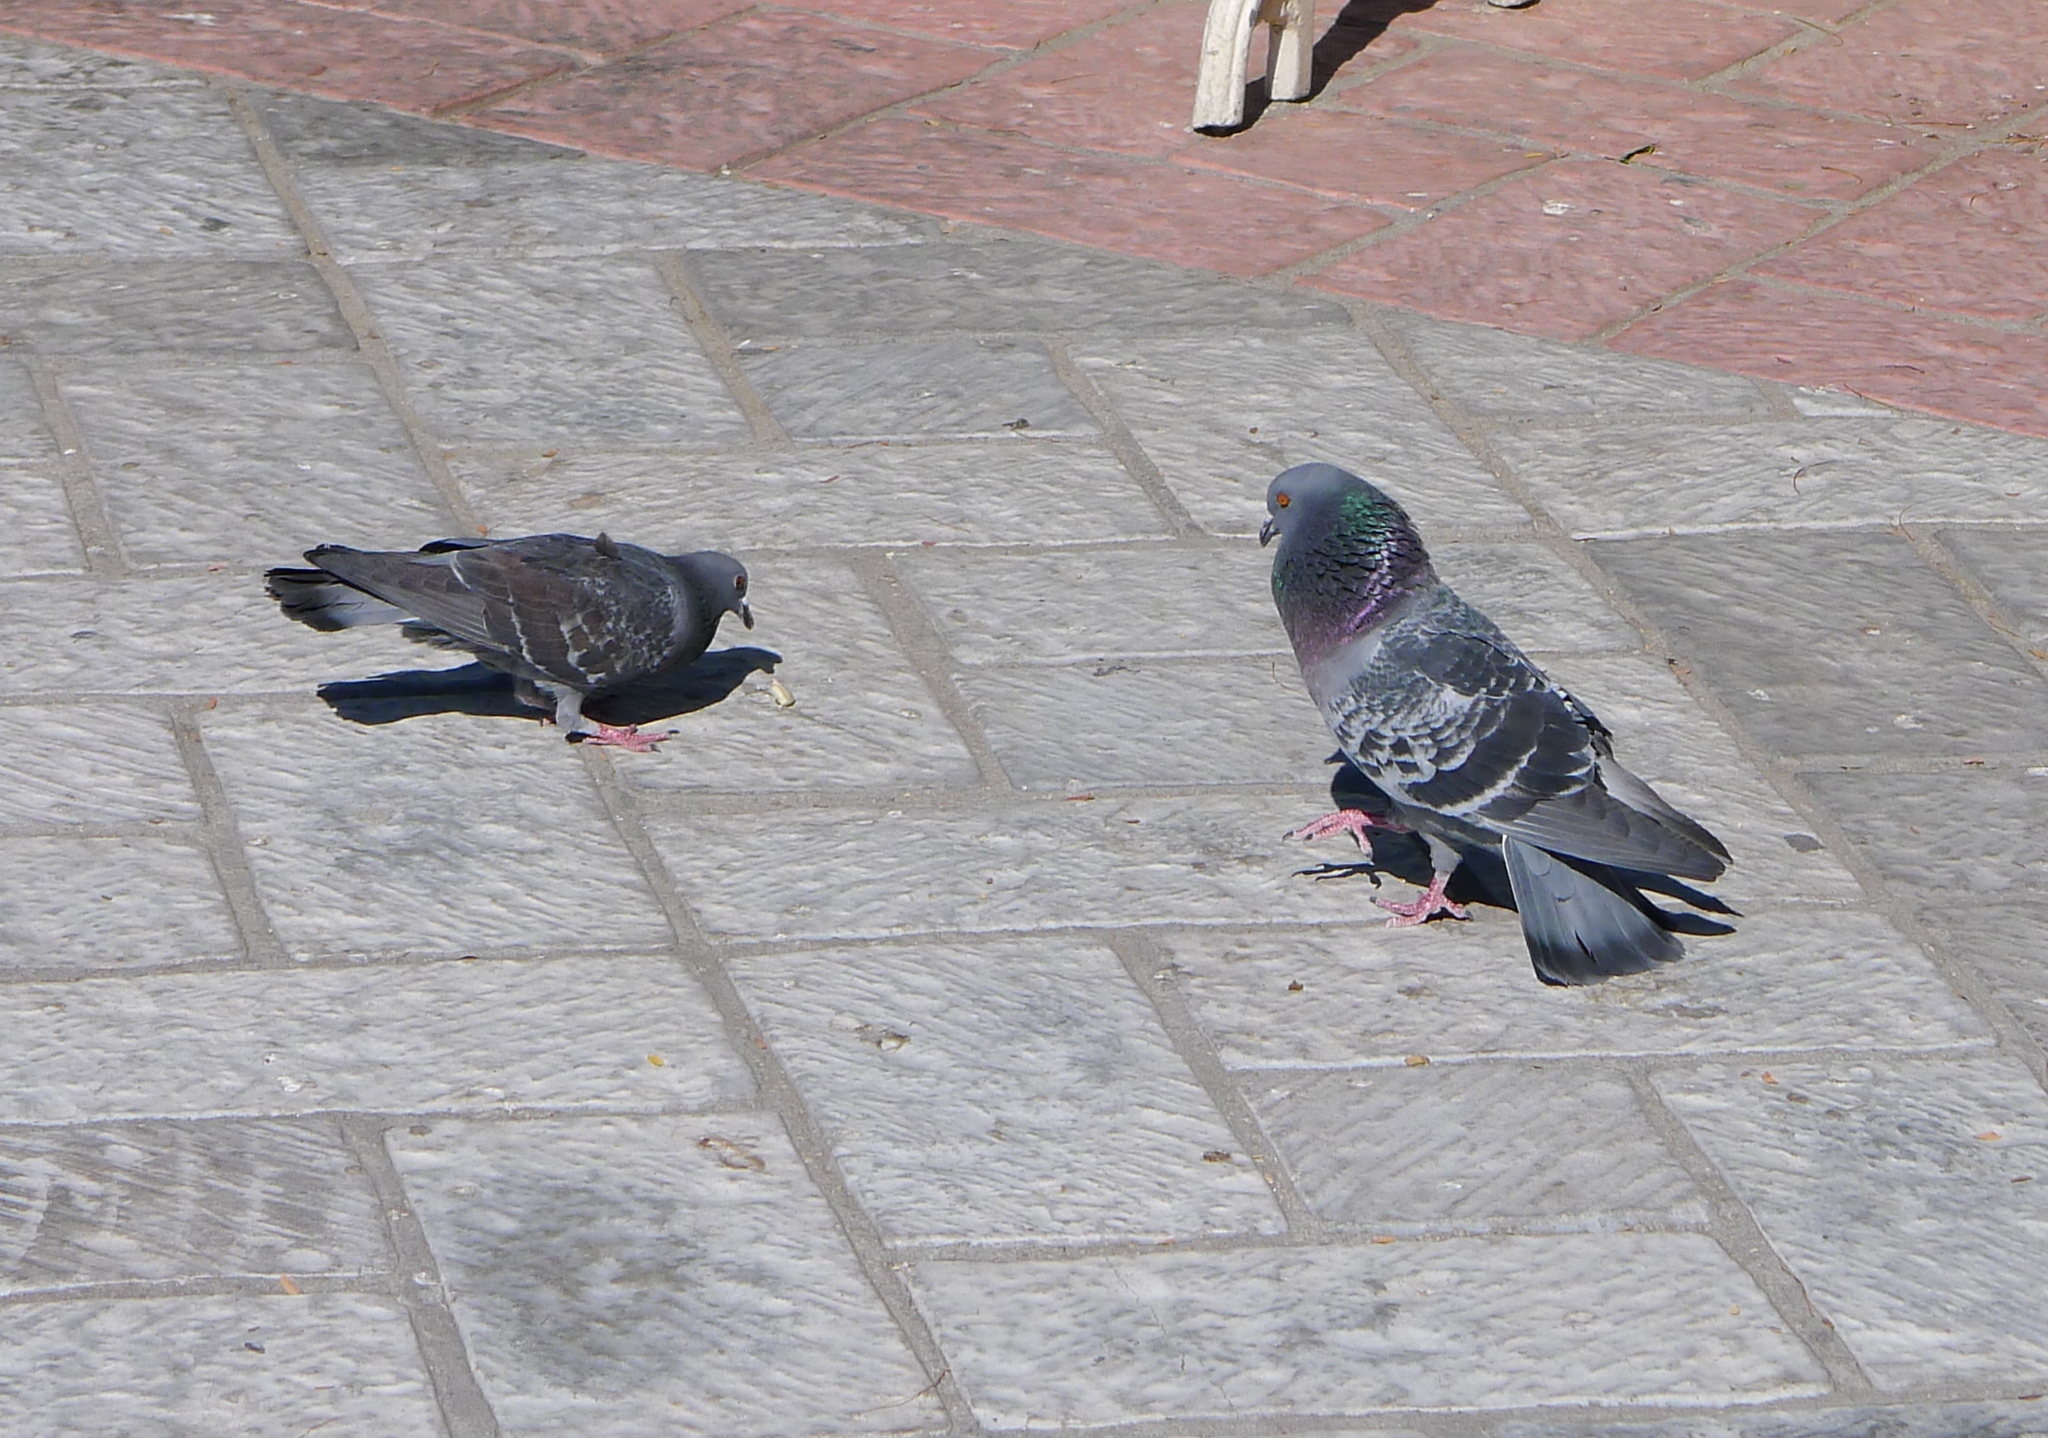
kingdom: Animalia
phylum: Chordata
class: Aves
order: Columbiformes
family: Columbidae
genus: Columba
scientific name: Columba livia
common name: Rock pigeon
